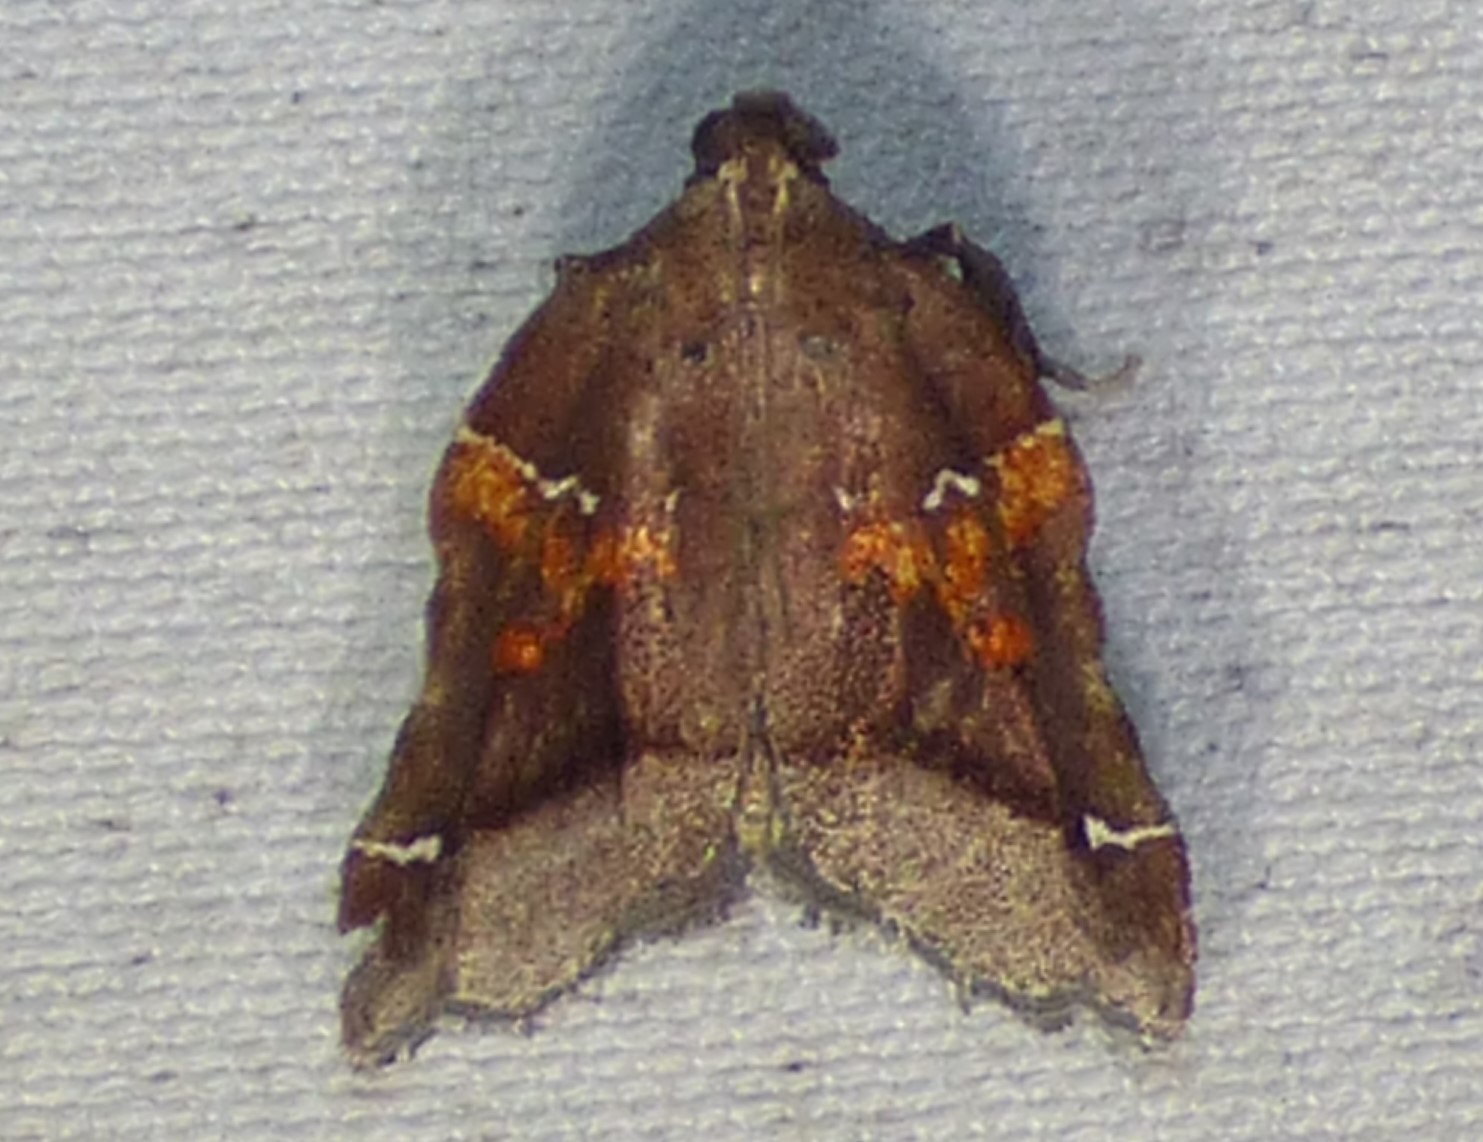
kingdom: Animalia
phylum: Arthropoda
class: Insecta
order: Lepidoptera
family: Pyralidae
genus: Clydonopteron
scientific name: Clydonopteron sacculana
